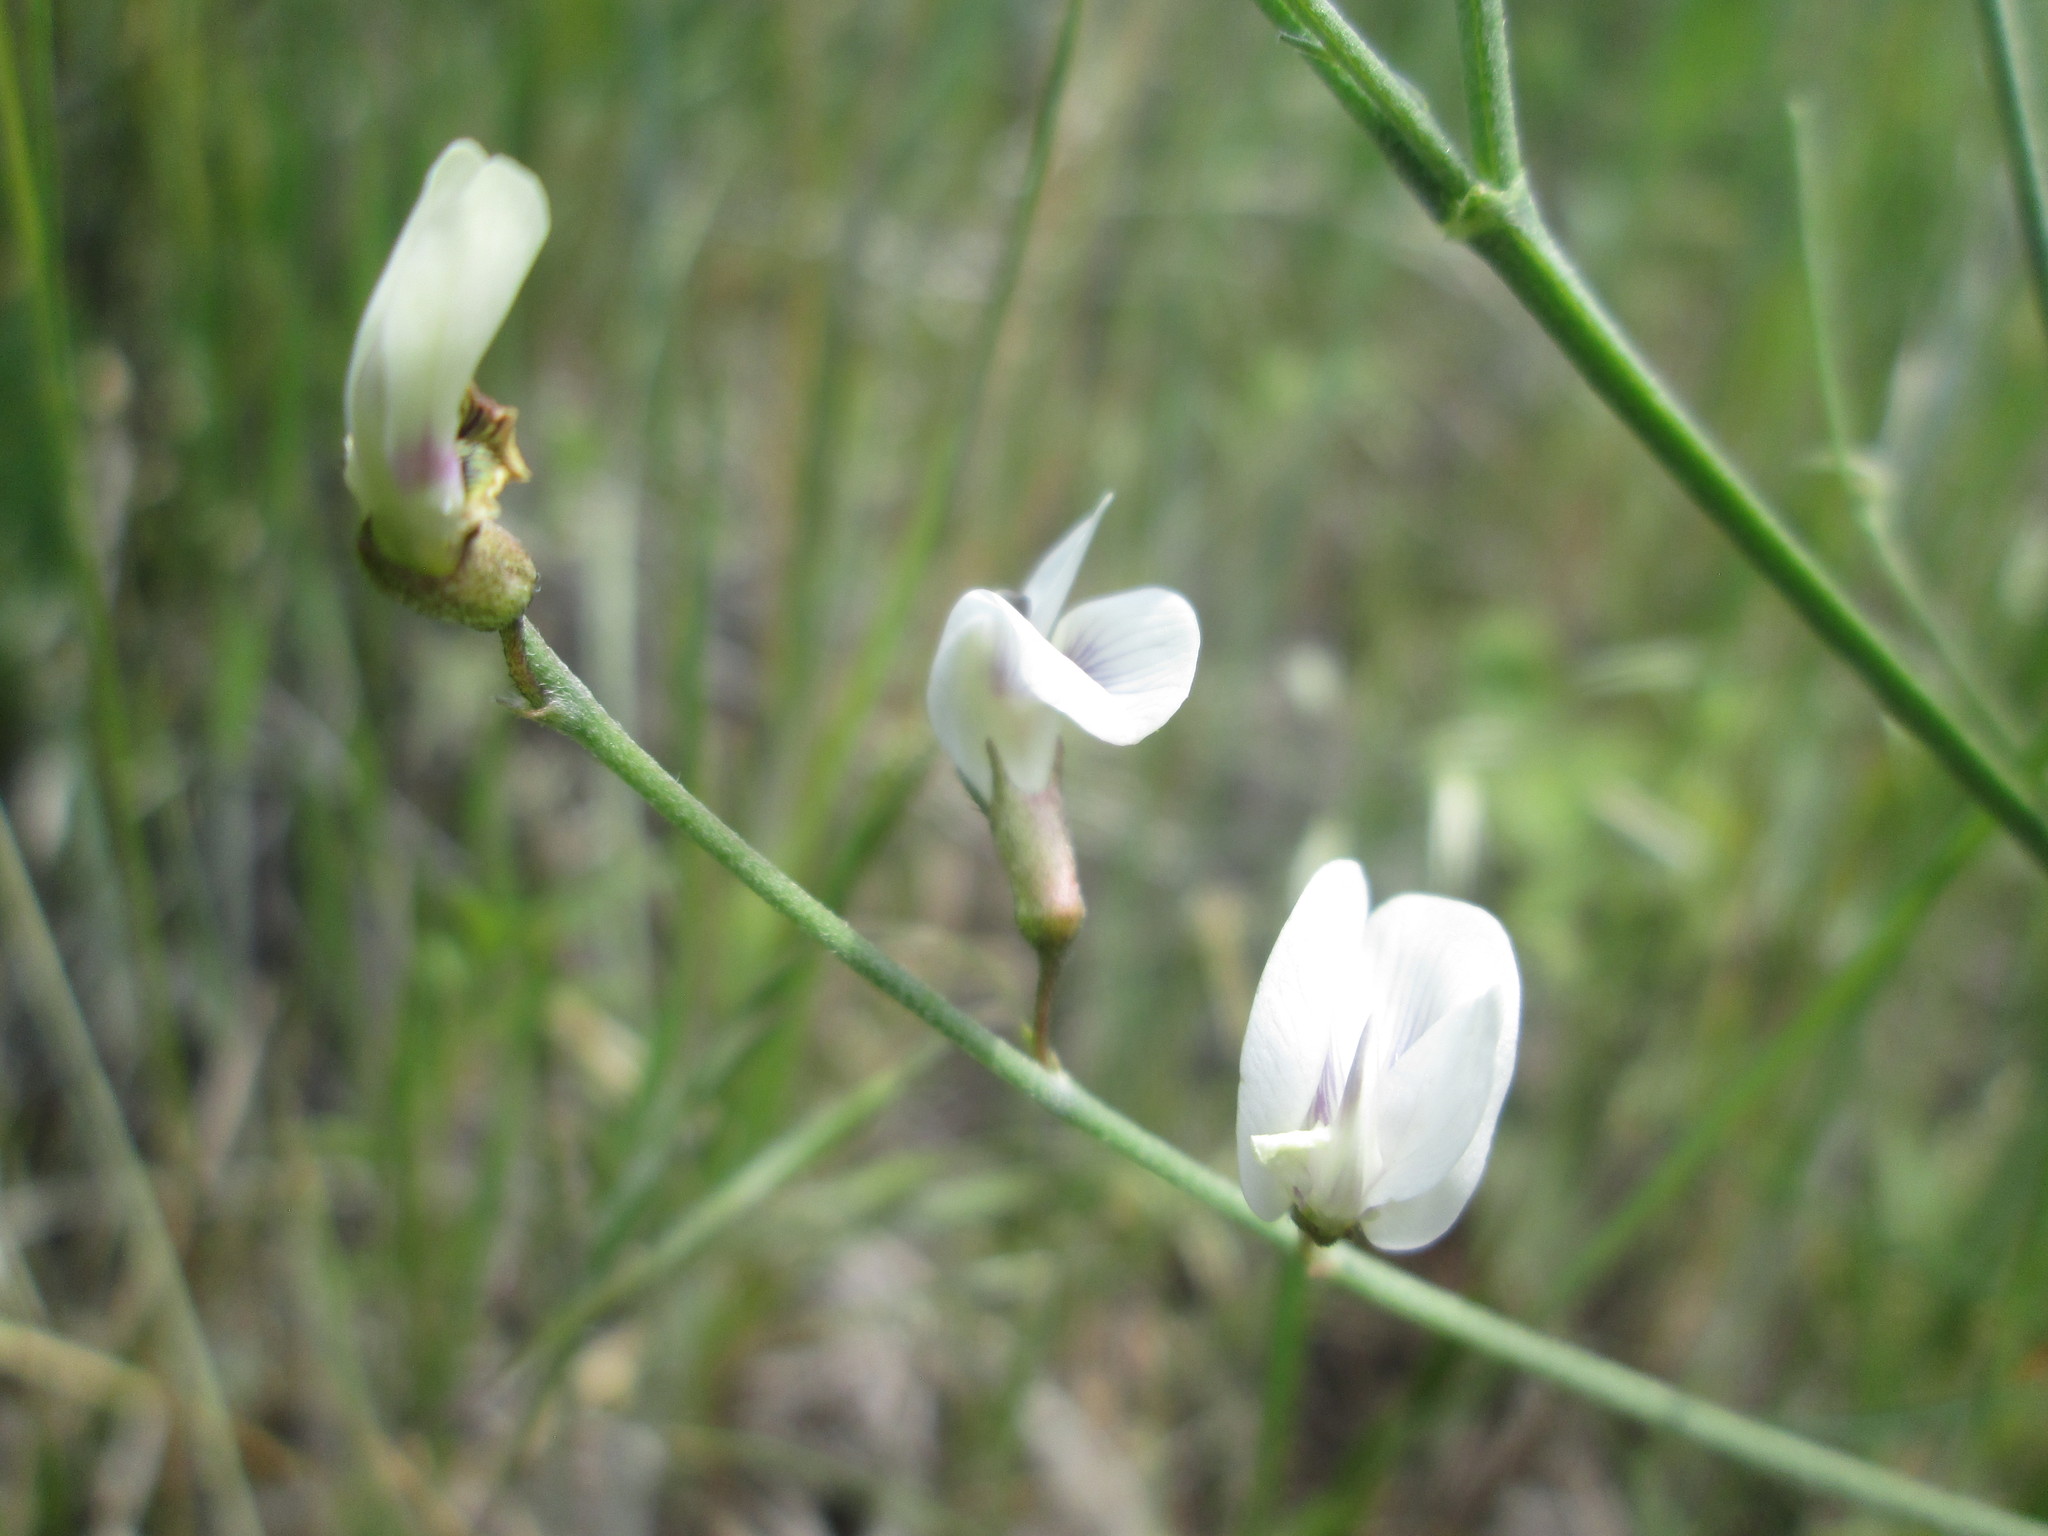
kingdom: Plantae
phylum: Tracheophyta
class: Magnoliopsida
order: Fabales
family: Fabaceae
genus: Astragalus
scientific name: Astragalus convallarius
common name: Lesser rushy milk-vetch
